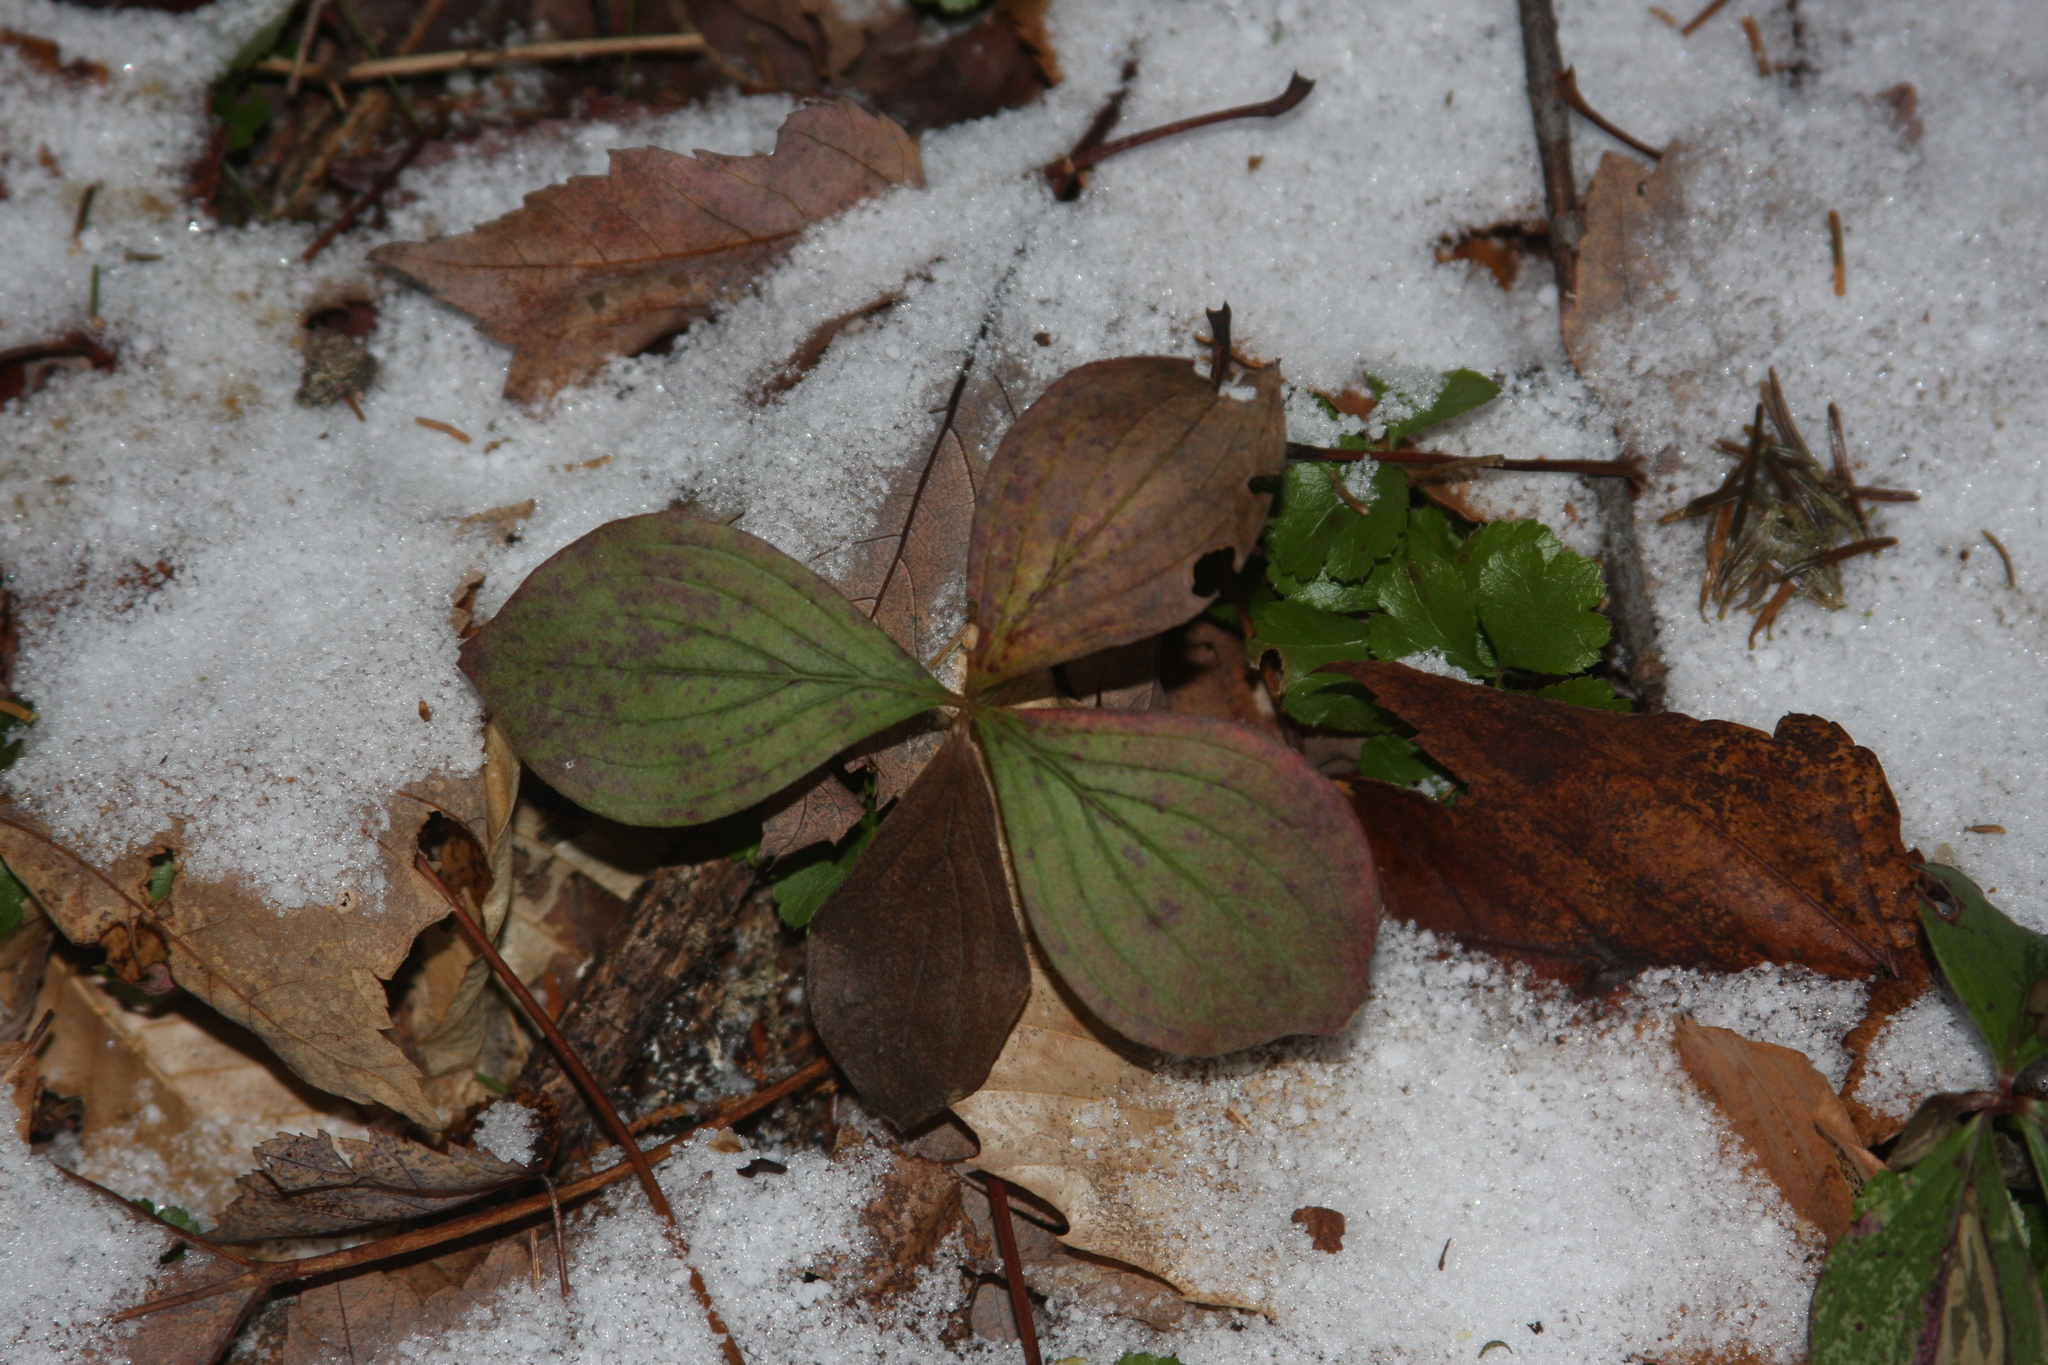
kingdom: Plantae
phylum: Tracheophyta
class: Magnoliopsida
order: Cornales
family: Cornaceae
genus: Cornus
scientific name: Cornus canadensis
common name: Creeping dogwood
